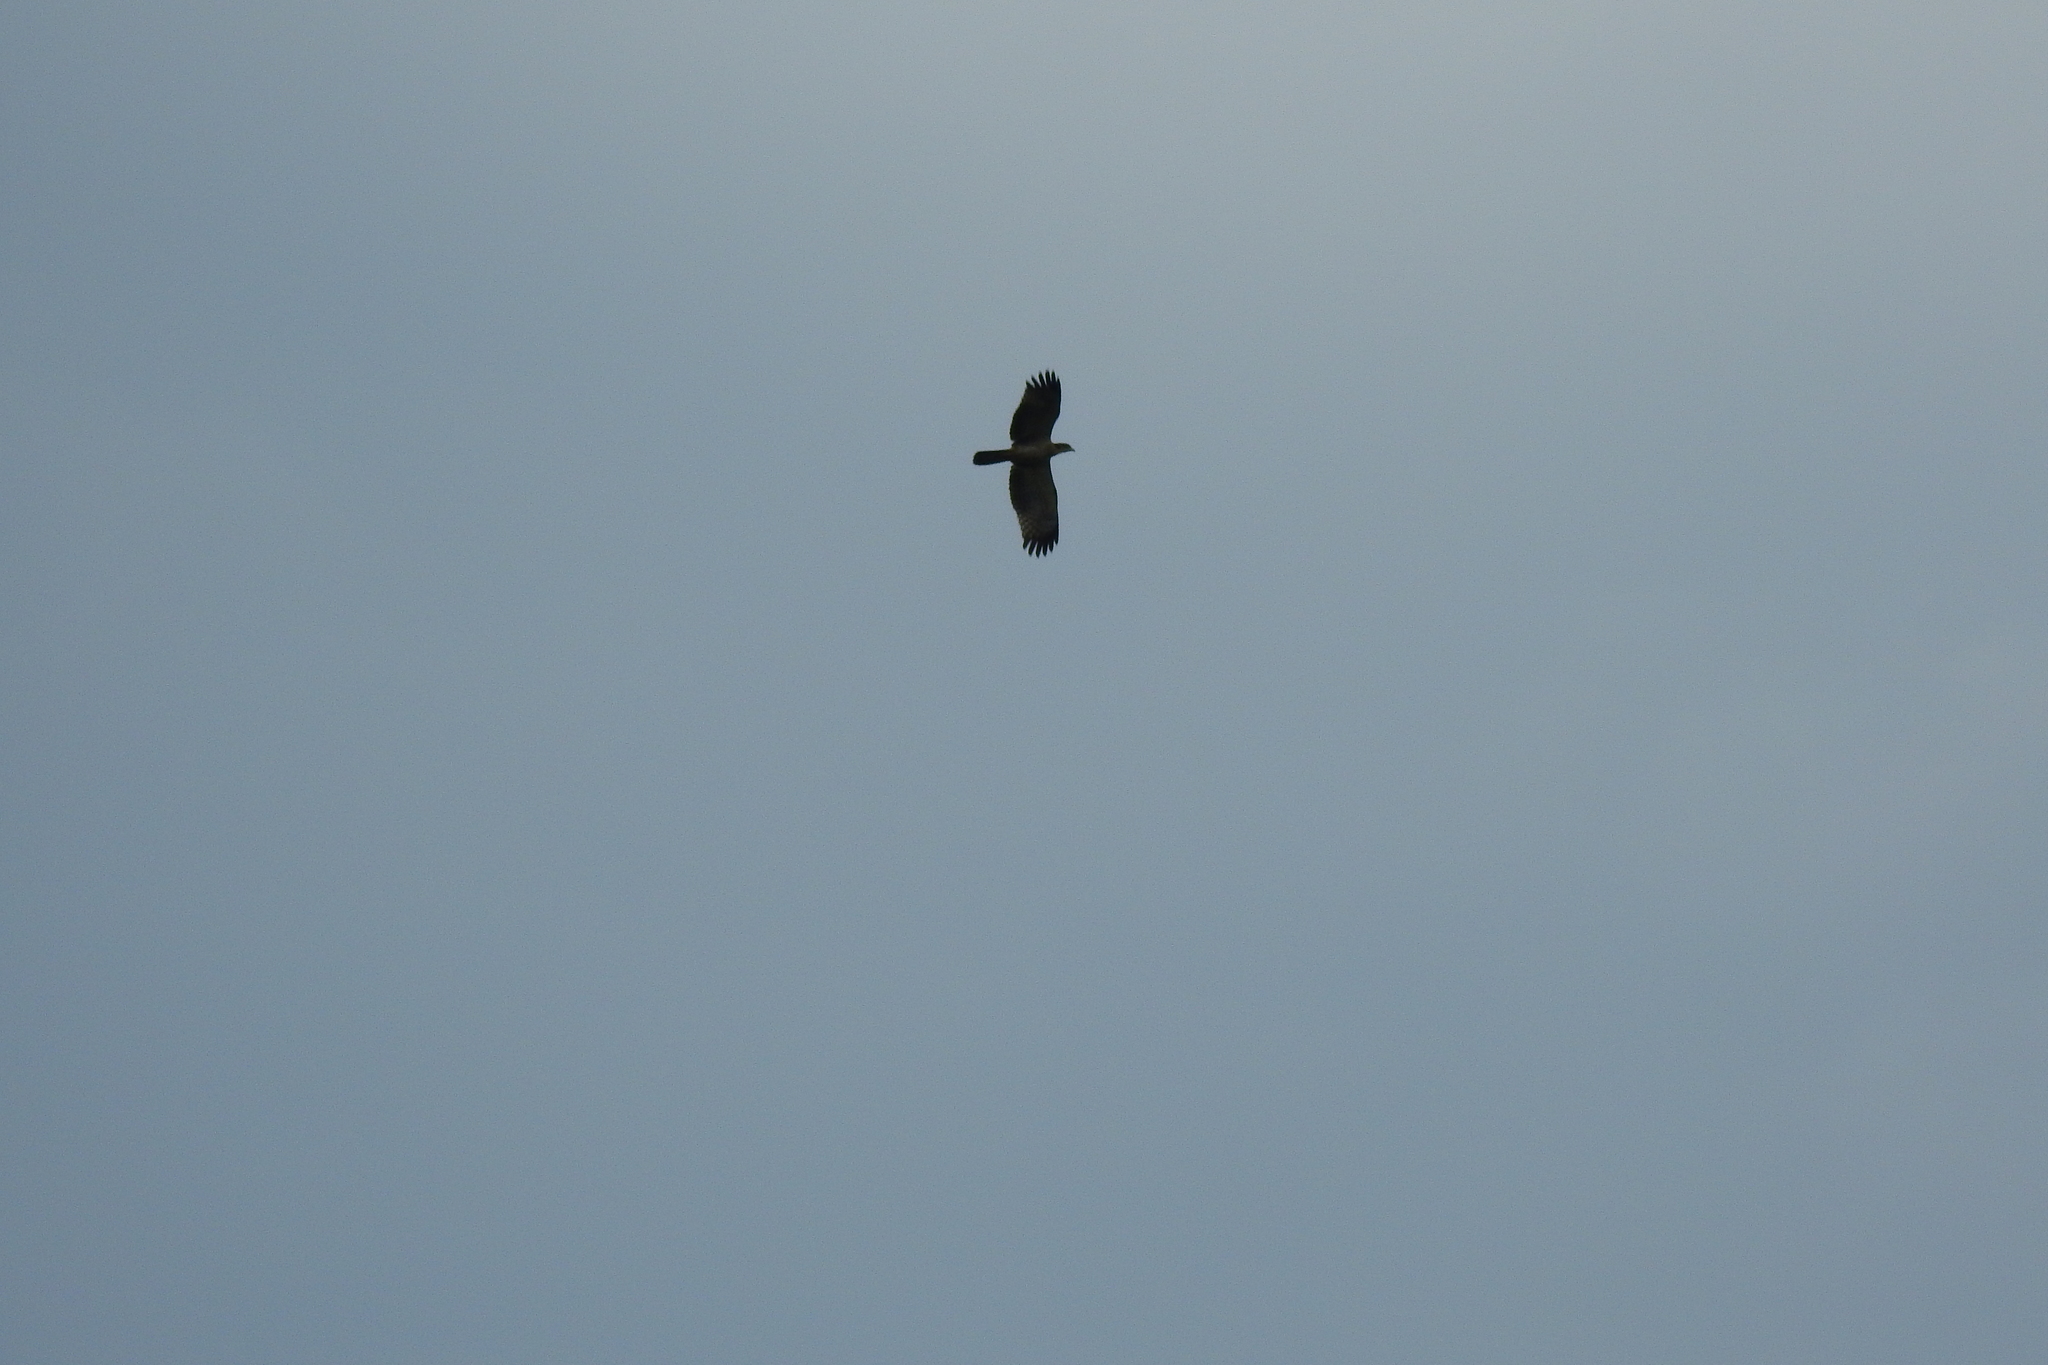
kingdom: Animalia
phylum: Chordata
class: Aves
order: Accipitriformes
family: Accipitridae
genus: Pernis
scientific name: Pernis ptilorhynchus
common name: Crested honey buzzard
